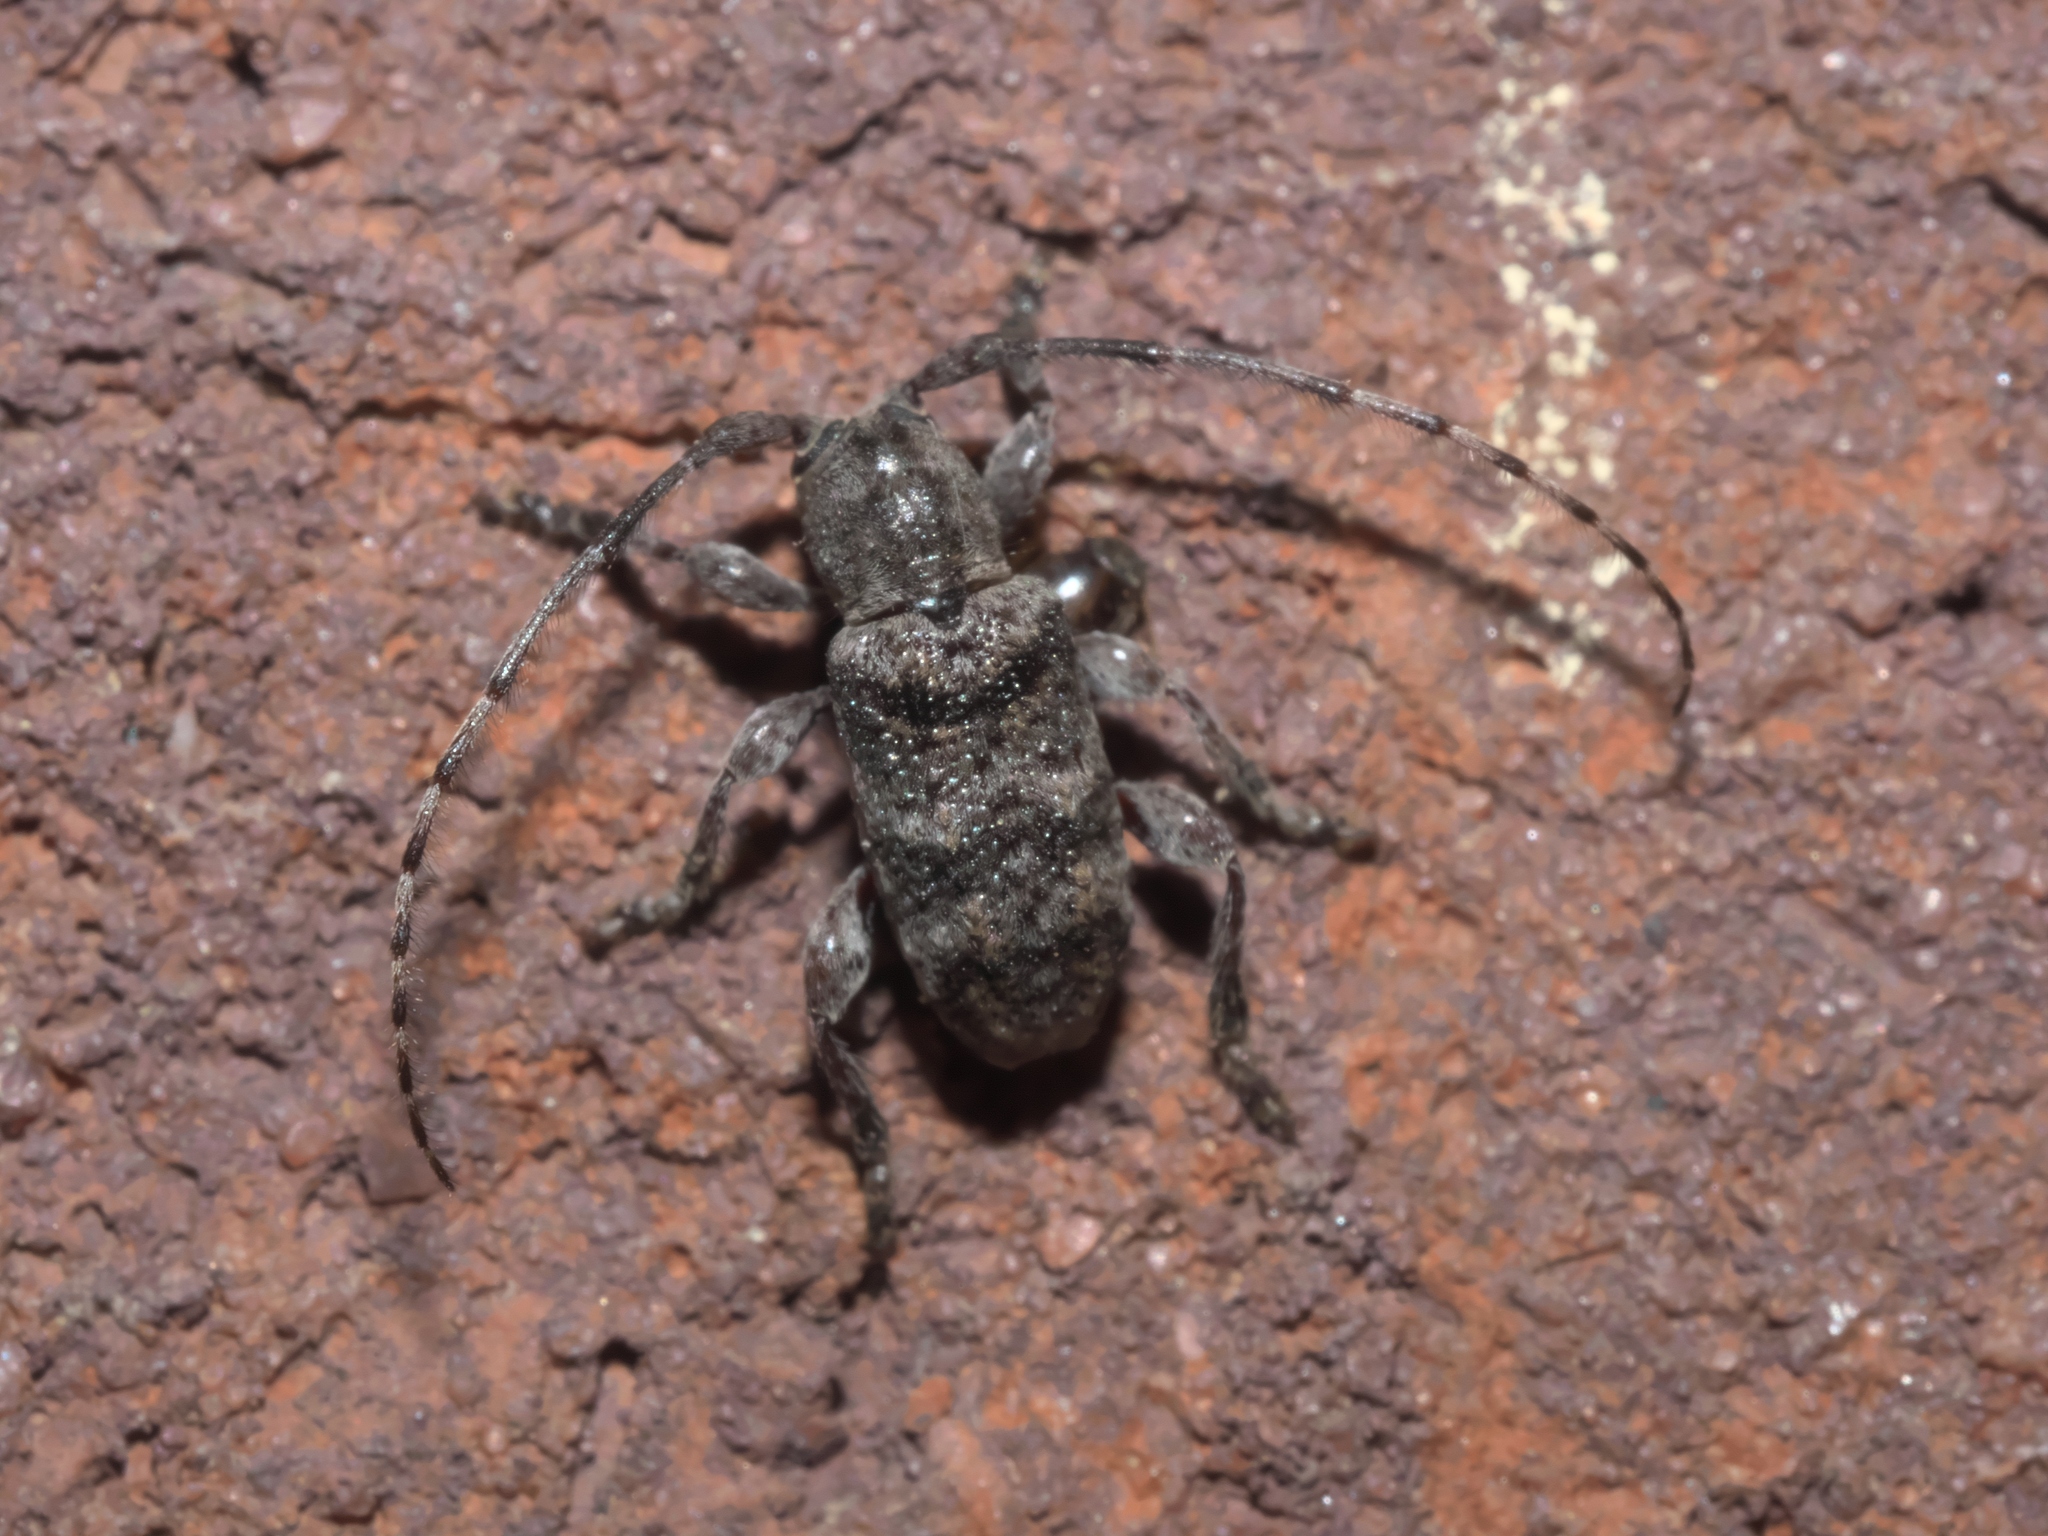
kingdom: Animalia
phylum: Arthropoda
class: Insecta
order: Coleoptera
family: Cerambycidae
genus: Ecyrus
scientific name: Ecyrus dasycerus
